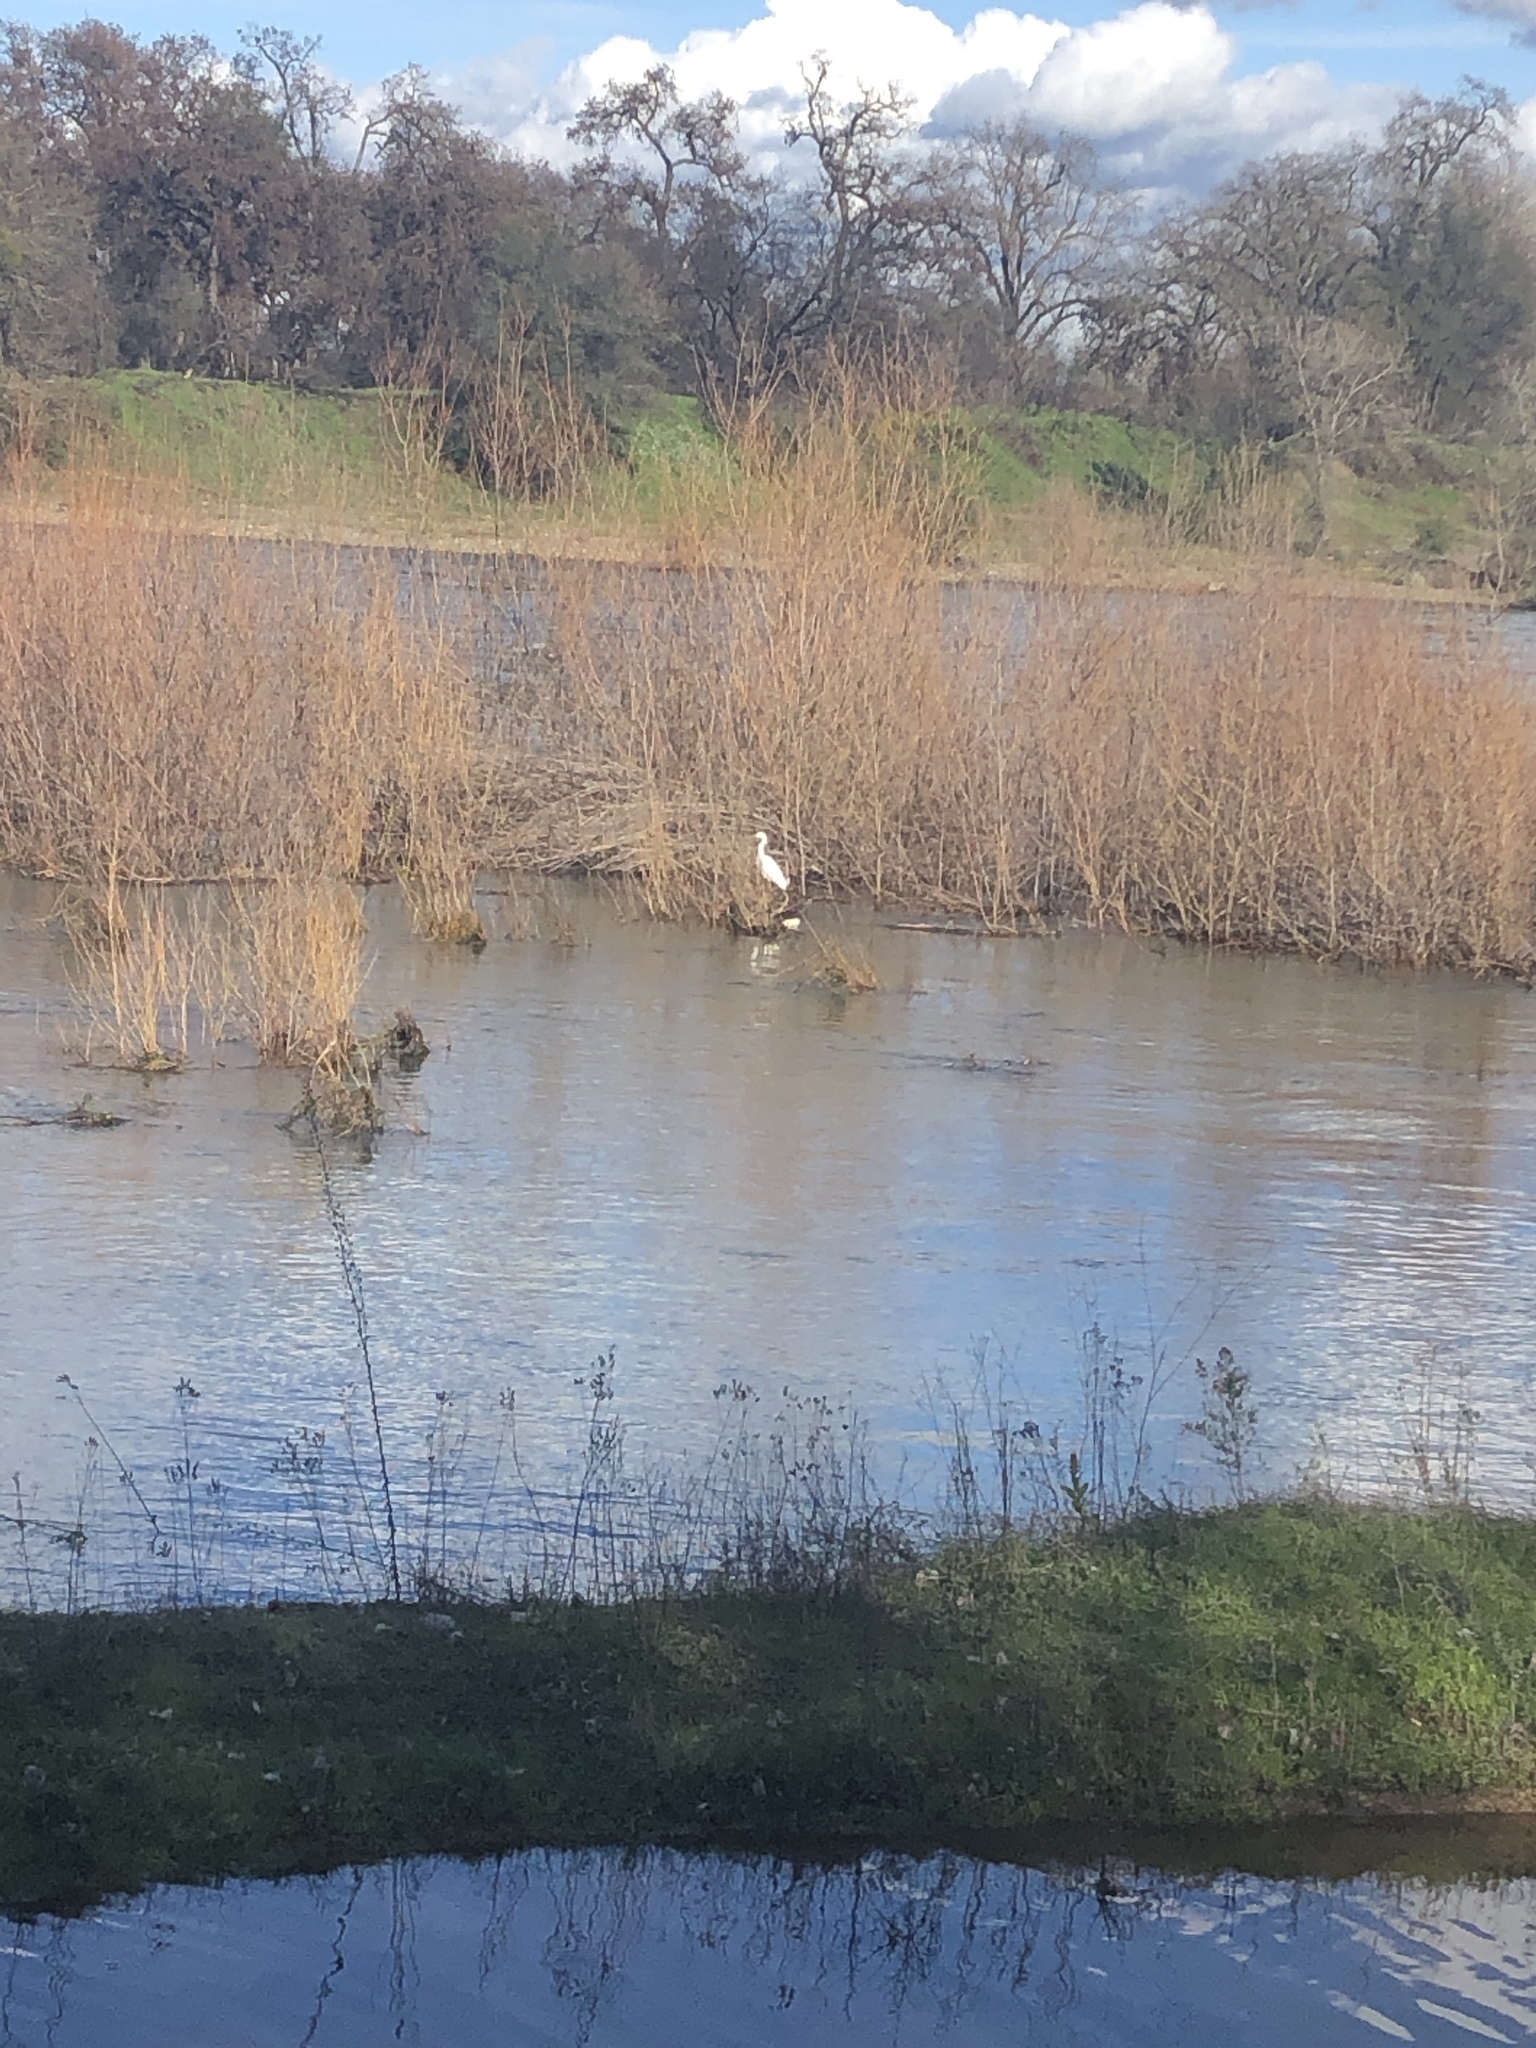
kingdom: Animalia
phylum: Chordata
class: Aves
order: Pelecaniformes
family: Ardeidae
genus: Ardea
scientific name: Ardea alba
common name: Great egret
